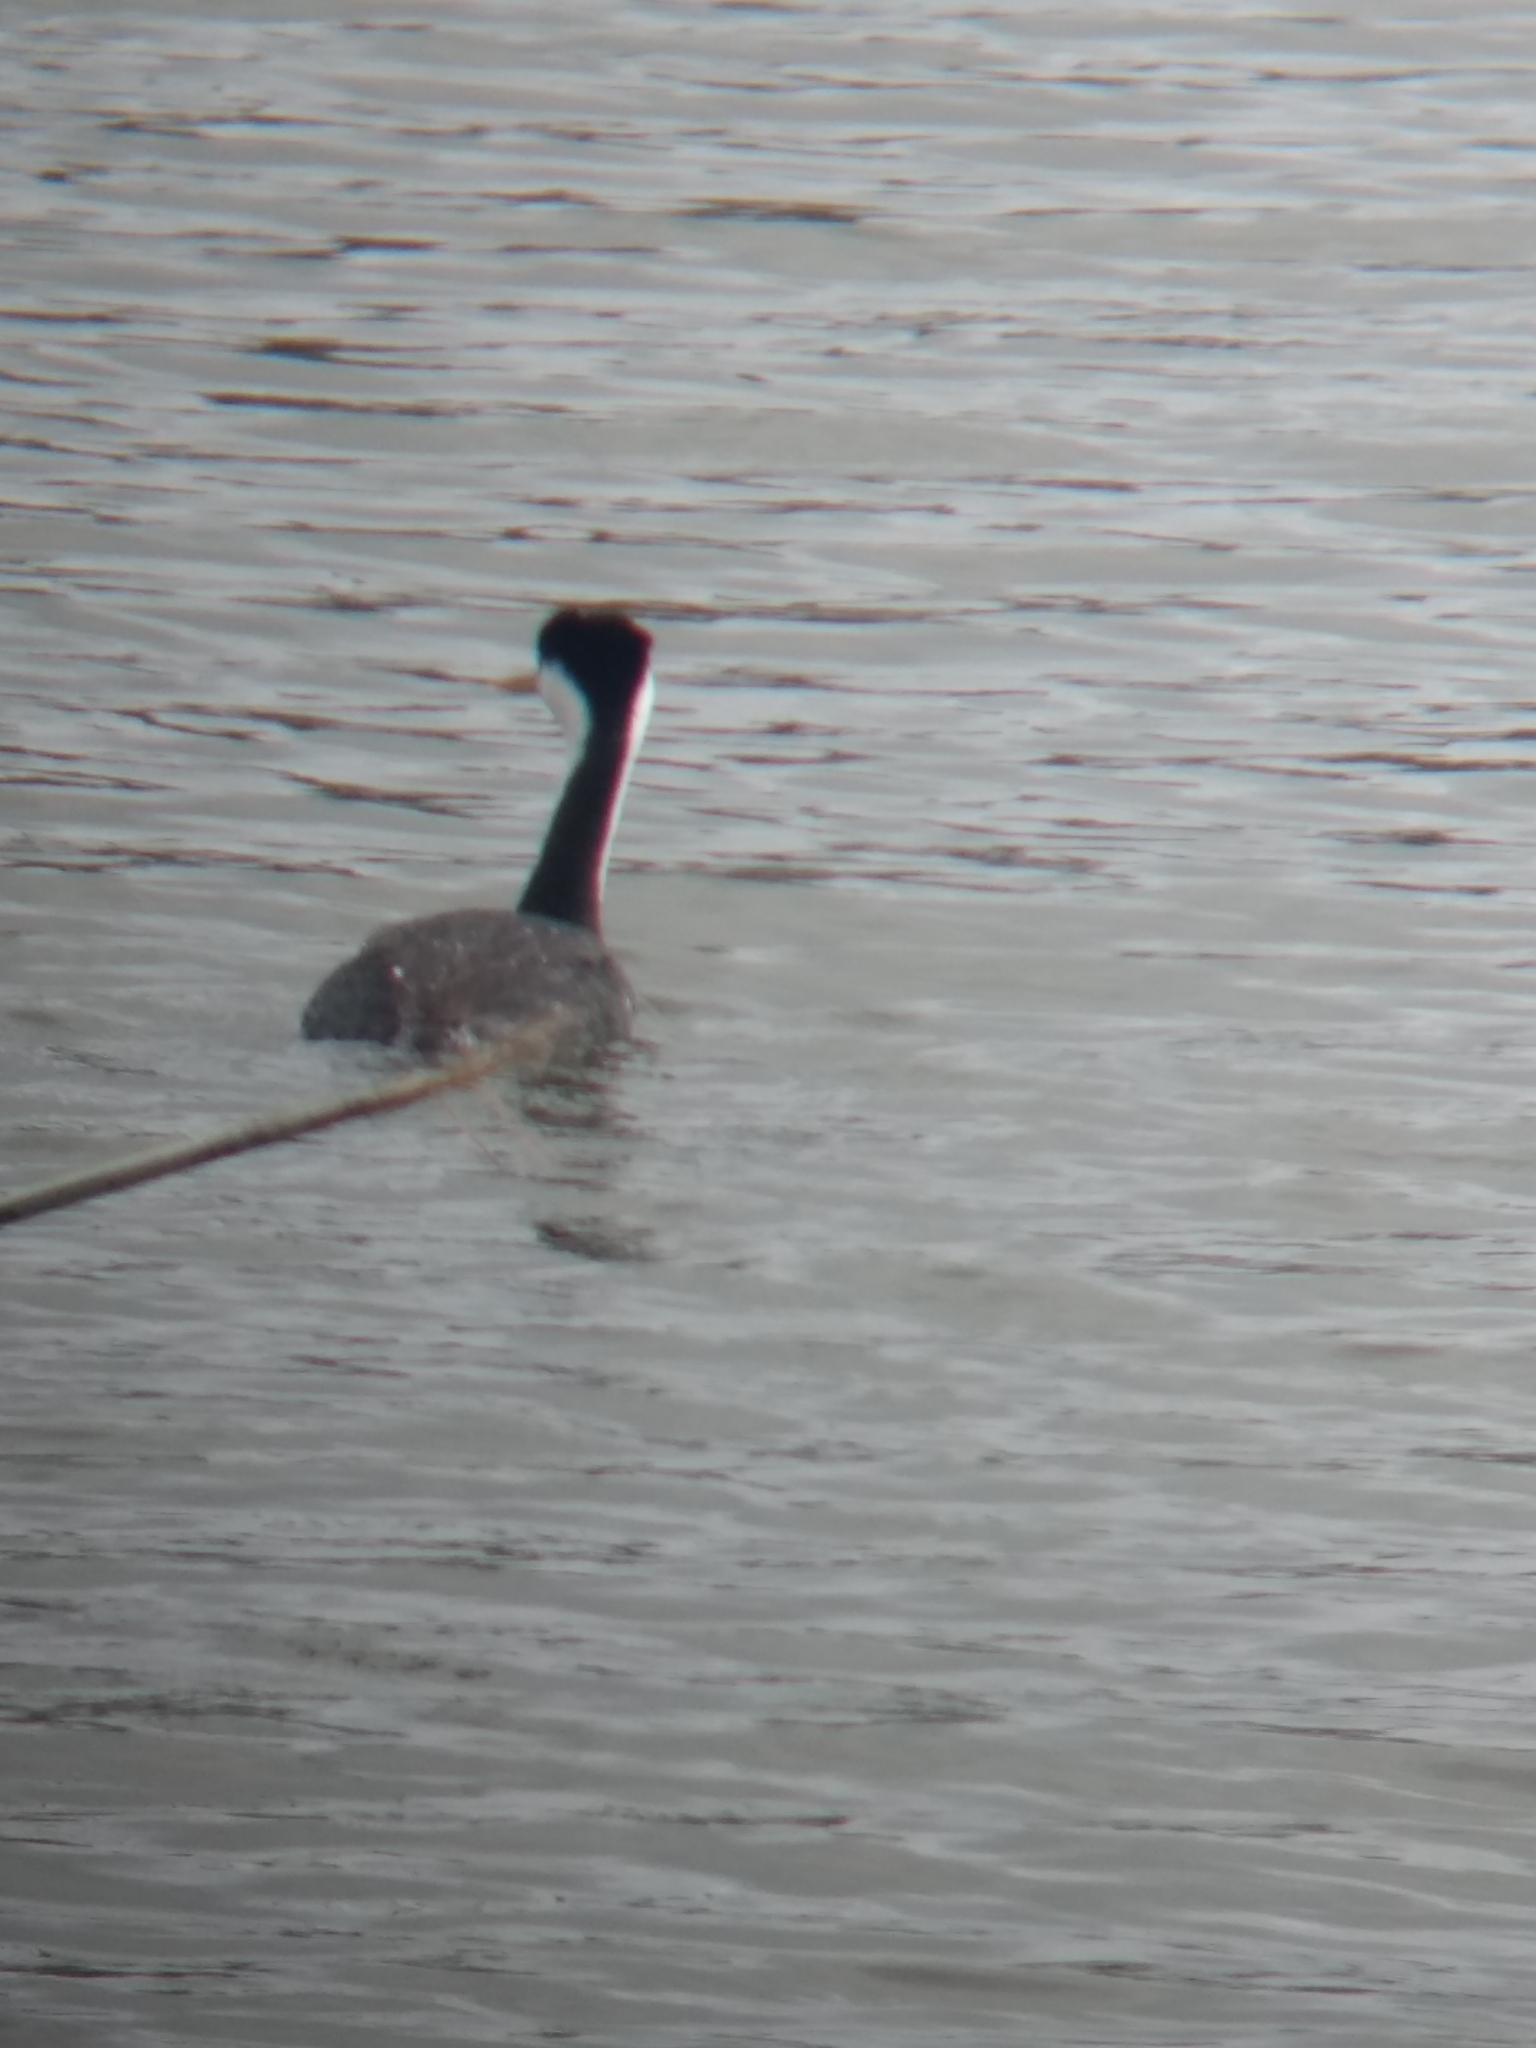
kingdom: Animalia
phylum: Chordata
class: Aves
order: Podicipediformes
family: Podicipedidae
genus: Aechmophorus
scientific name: Aechmophorus occidentalis
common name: Western grebe
